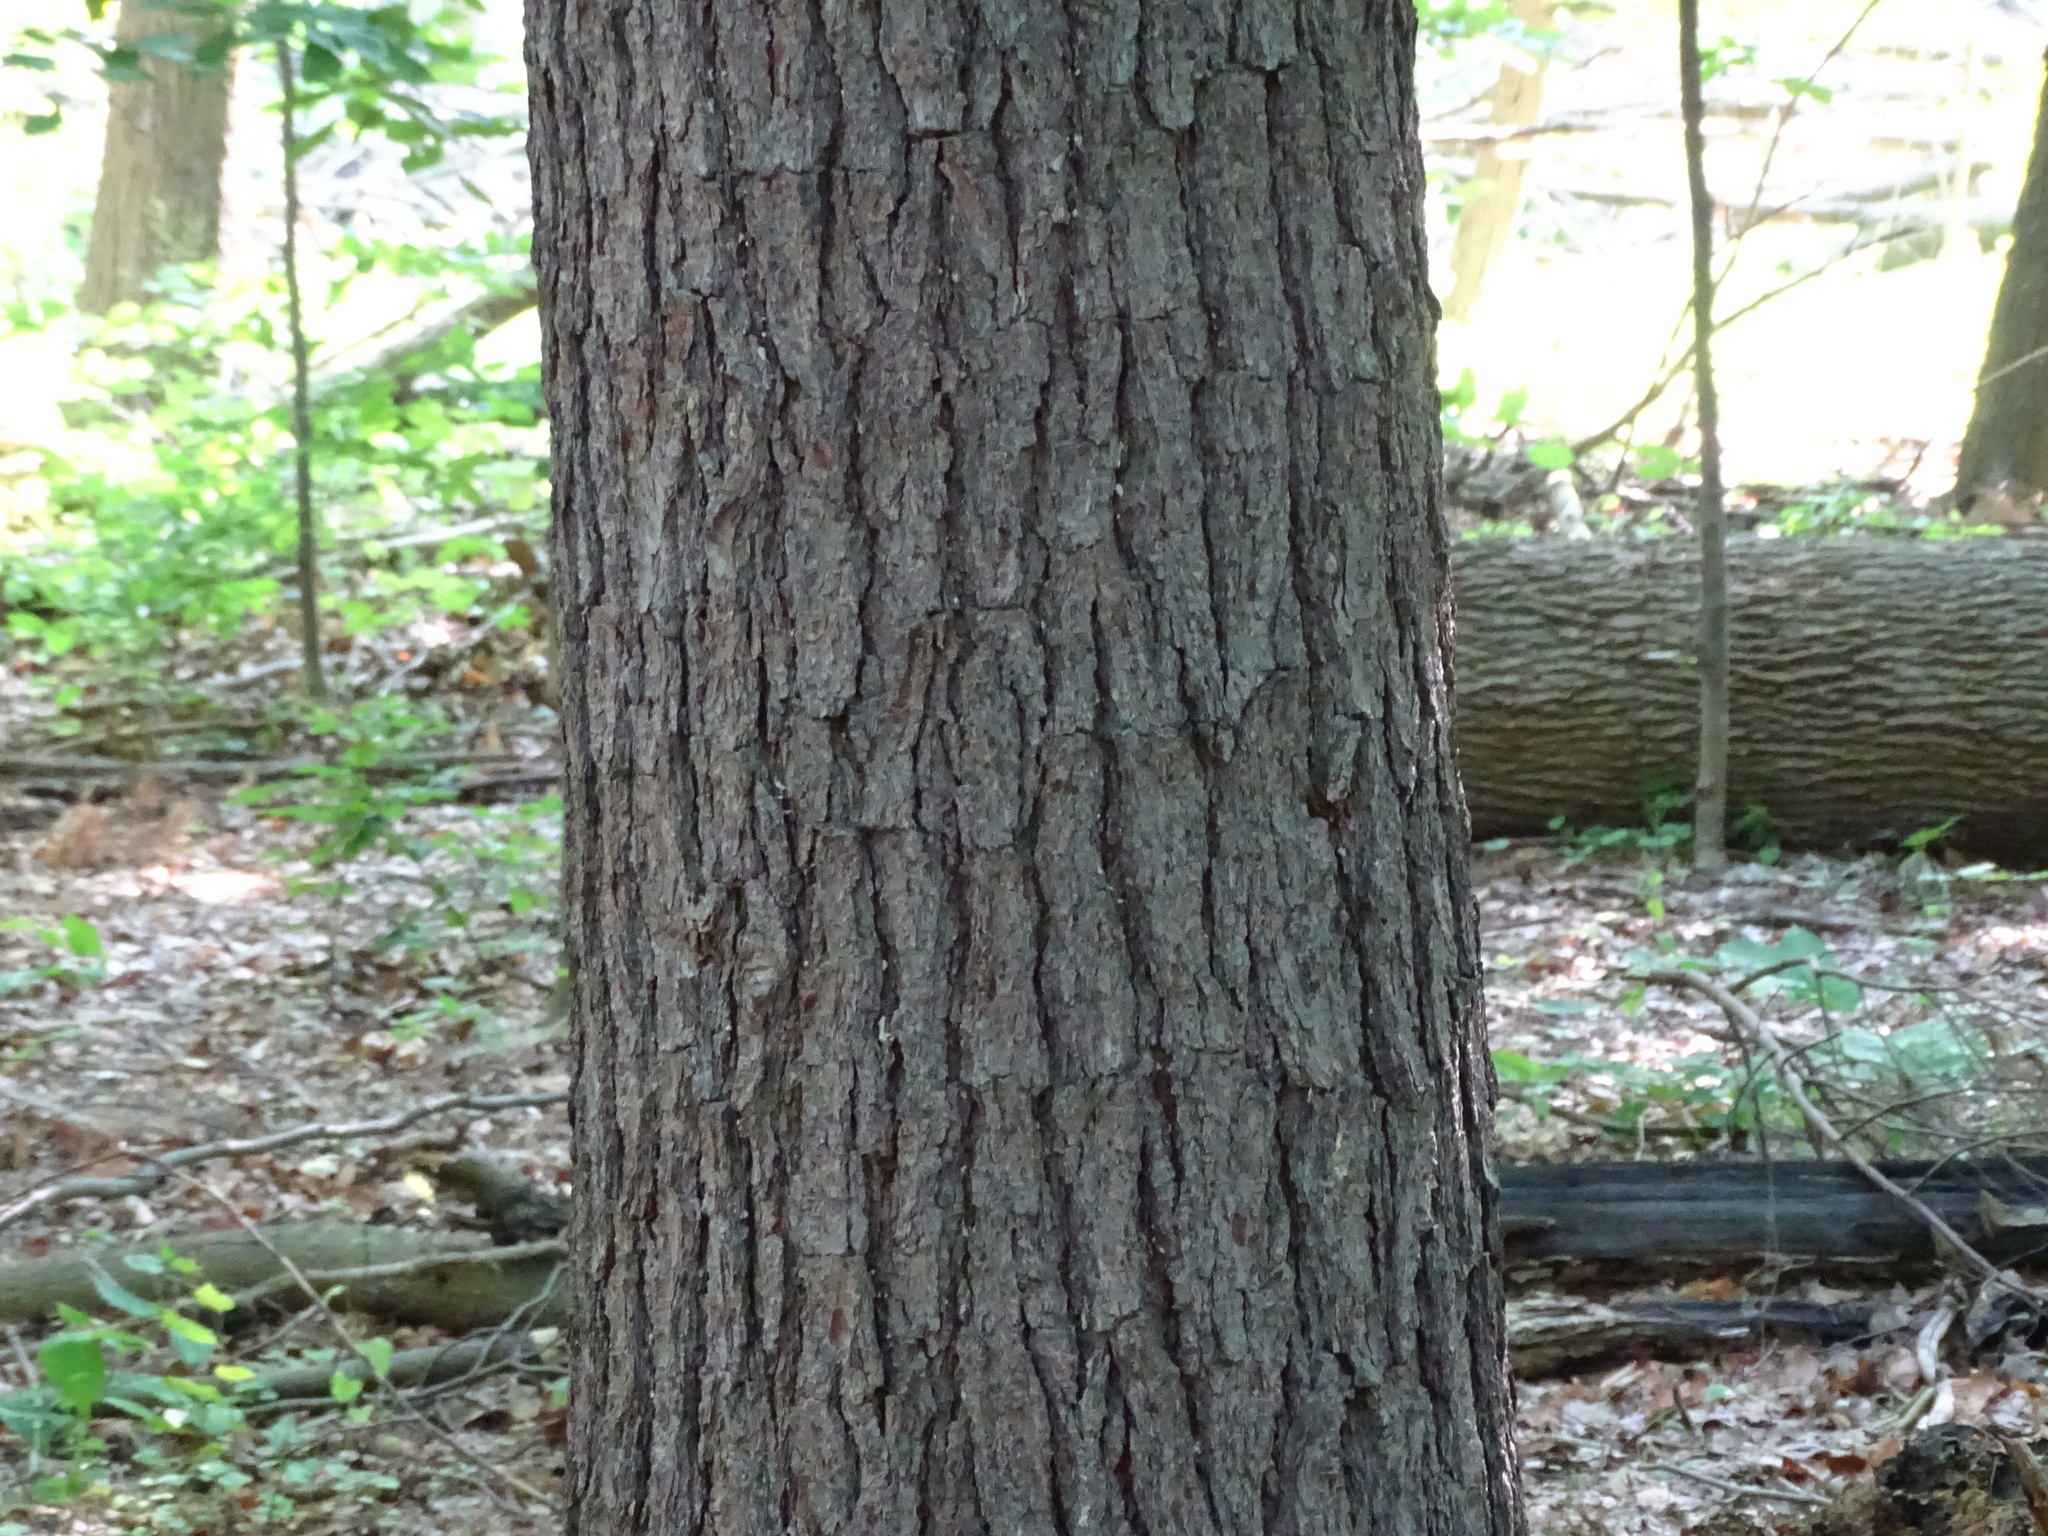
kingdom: Plantae
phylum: Tracheophyta
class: Pinopsida
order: Pinales
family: Pinaceae
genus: Pinus
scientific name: Pinus strobus
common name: Weymouth pine
